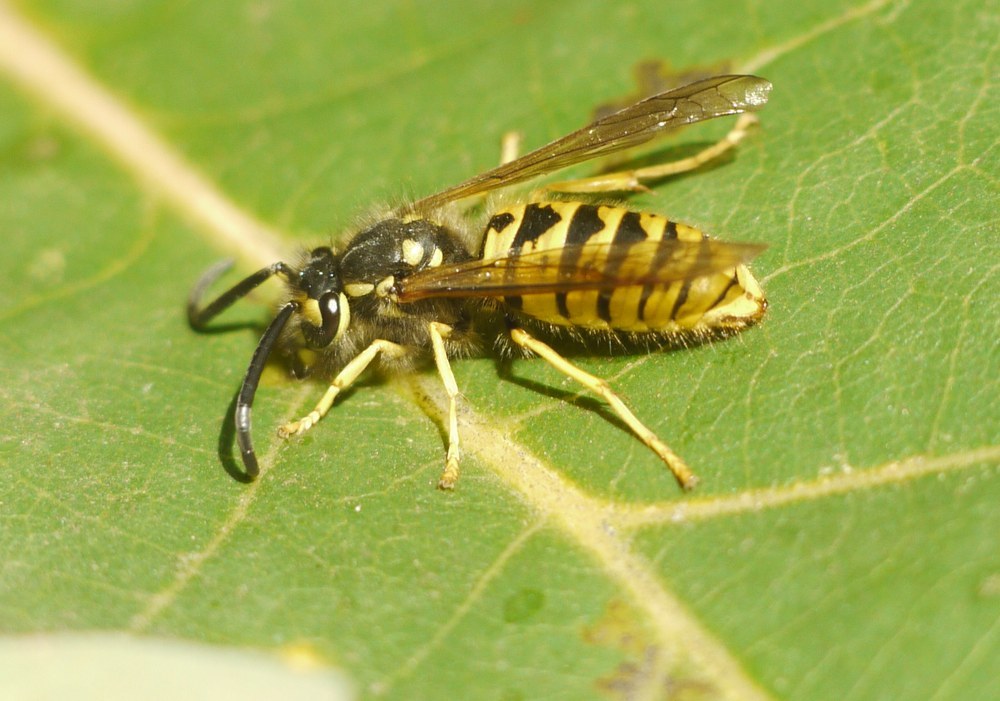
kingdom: Animalia
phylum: Arthropoda
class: Insecta
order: Hymenoptera
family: Vespidae
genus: Vespula
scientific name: Vespula germanica
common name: German wasp
